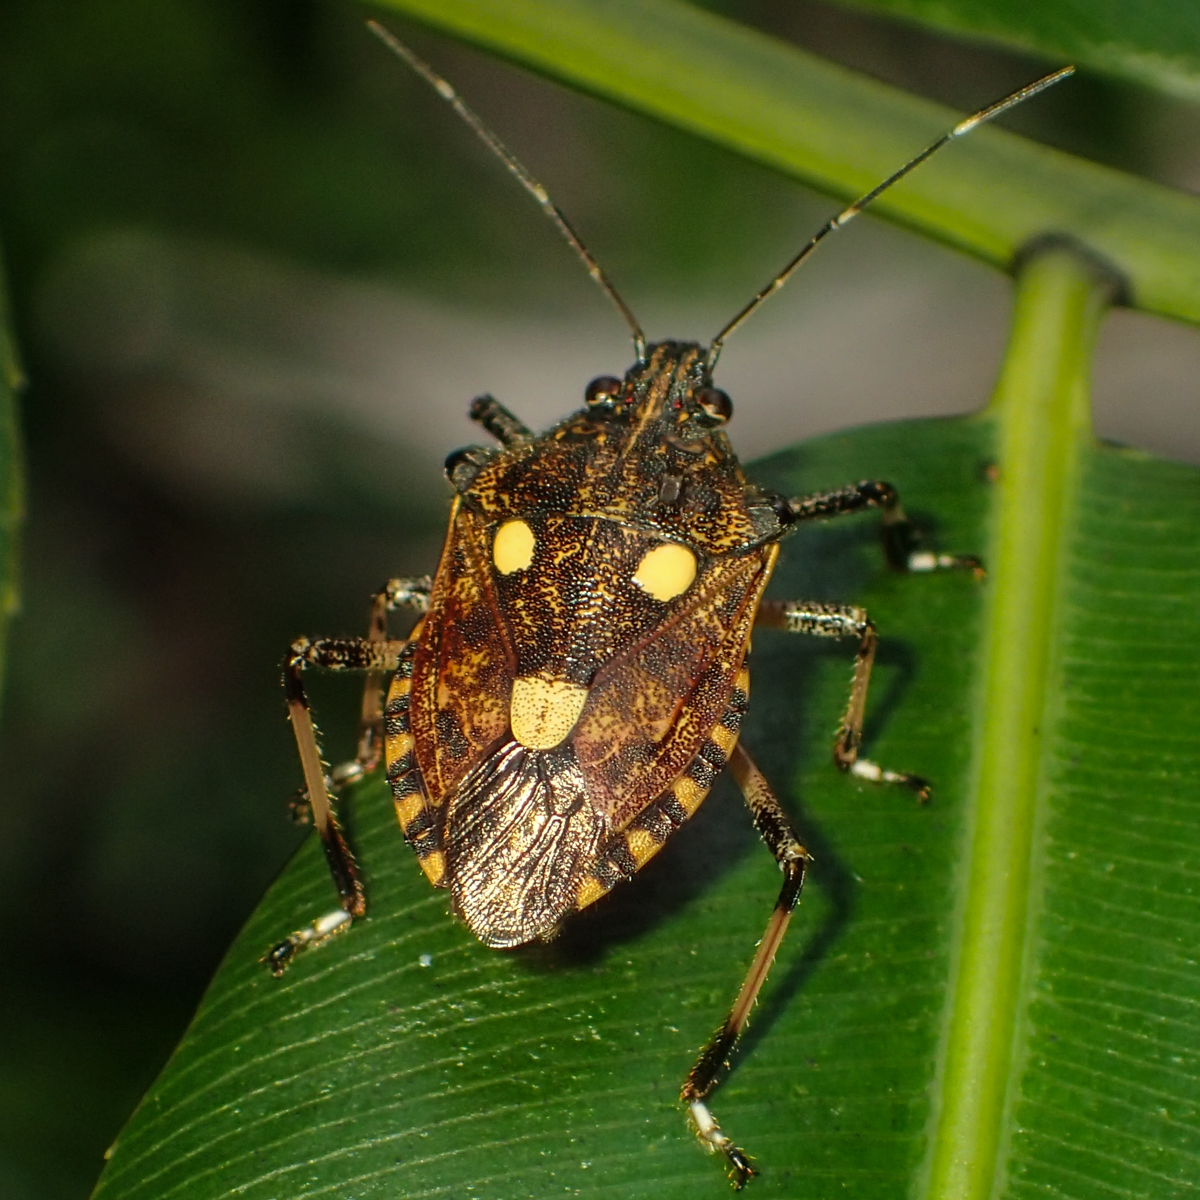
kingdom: Animalia
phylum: Arthropoda
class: Insecta
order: Hemiptera
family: Pentatomidae
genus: Dalpada
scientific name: Dalpada oculata
